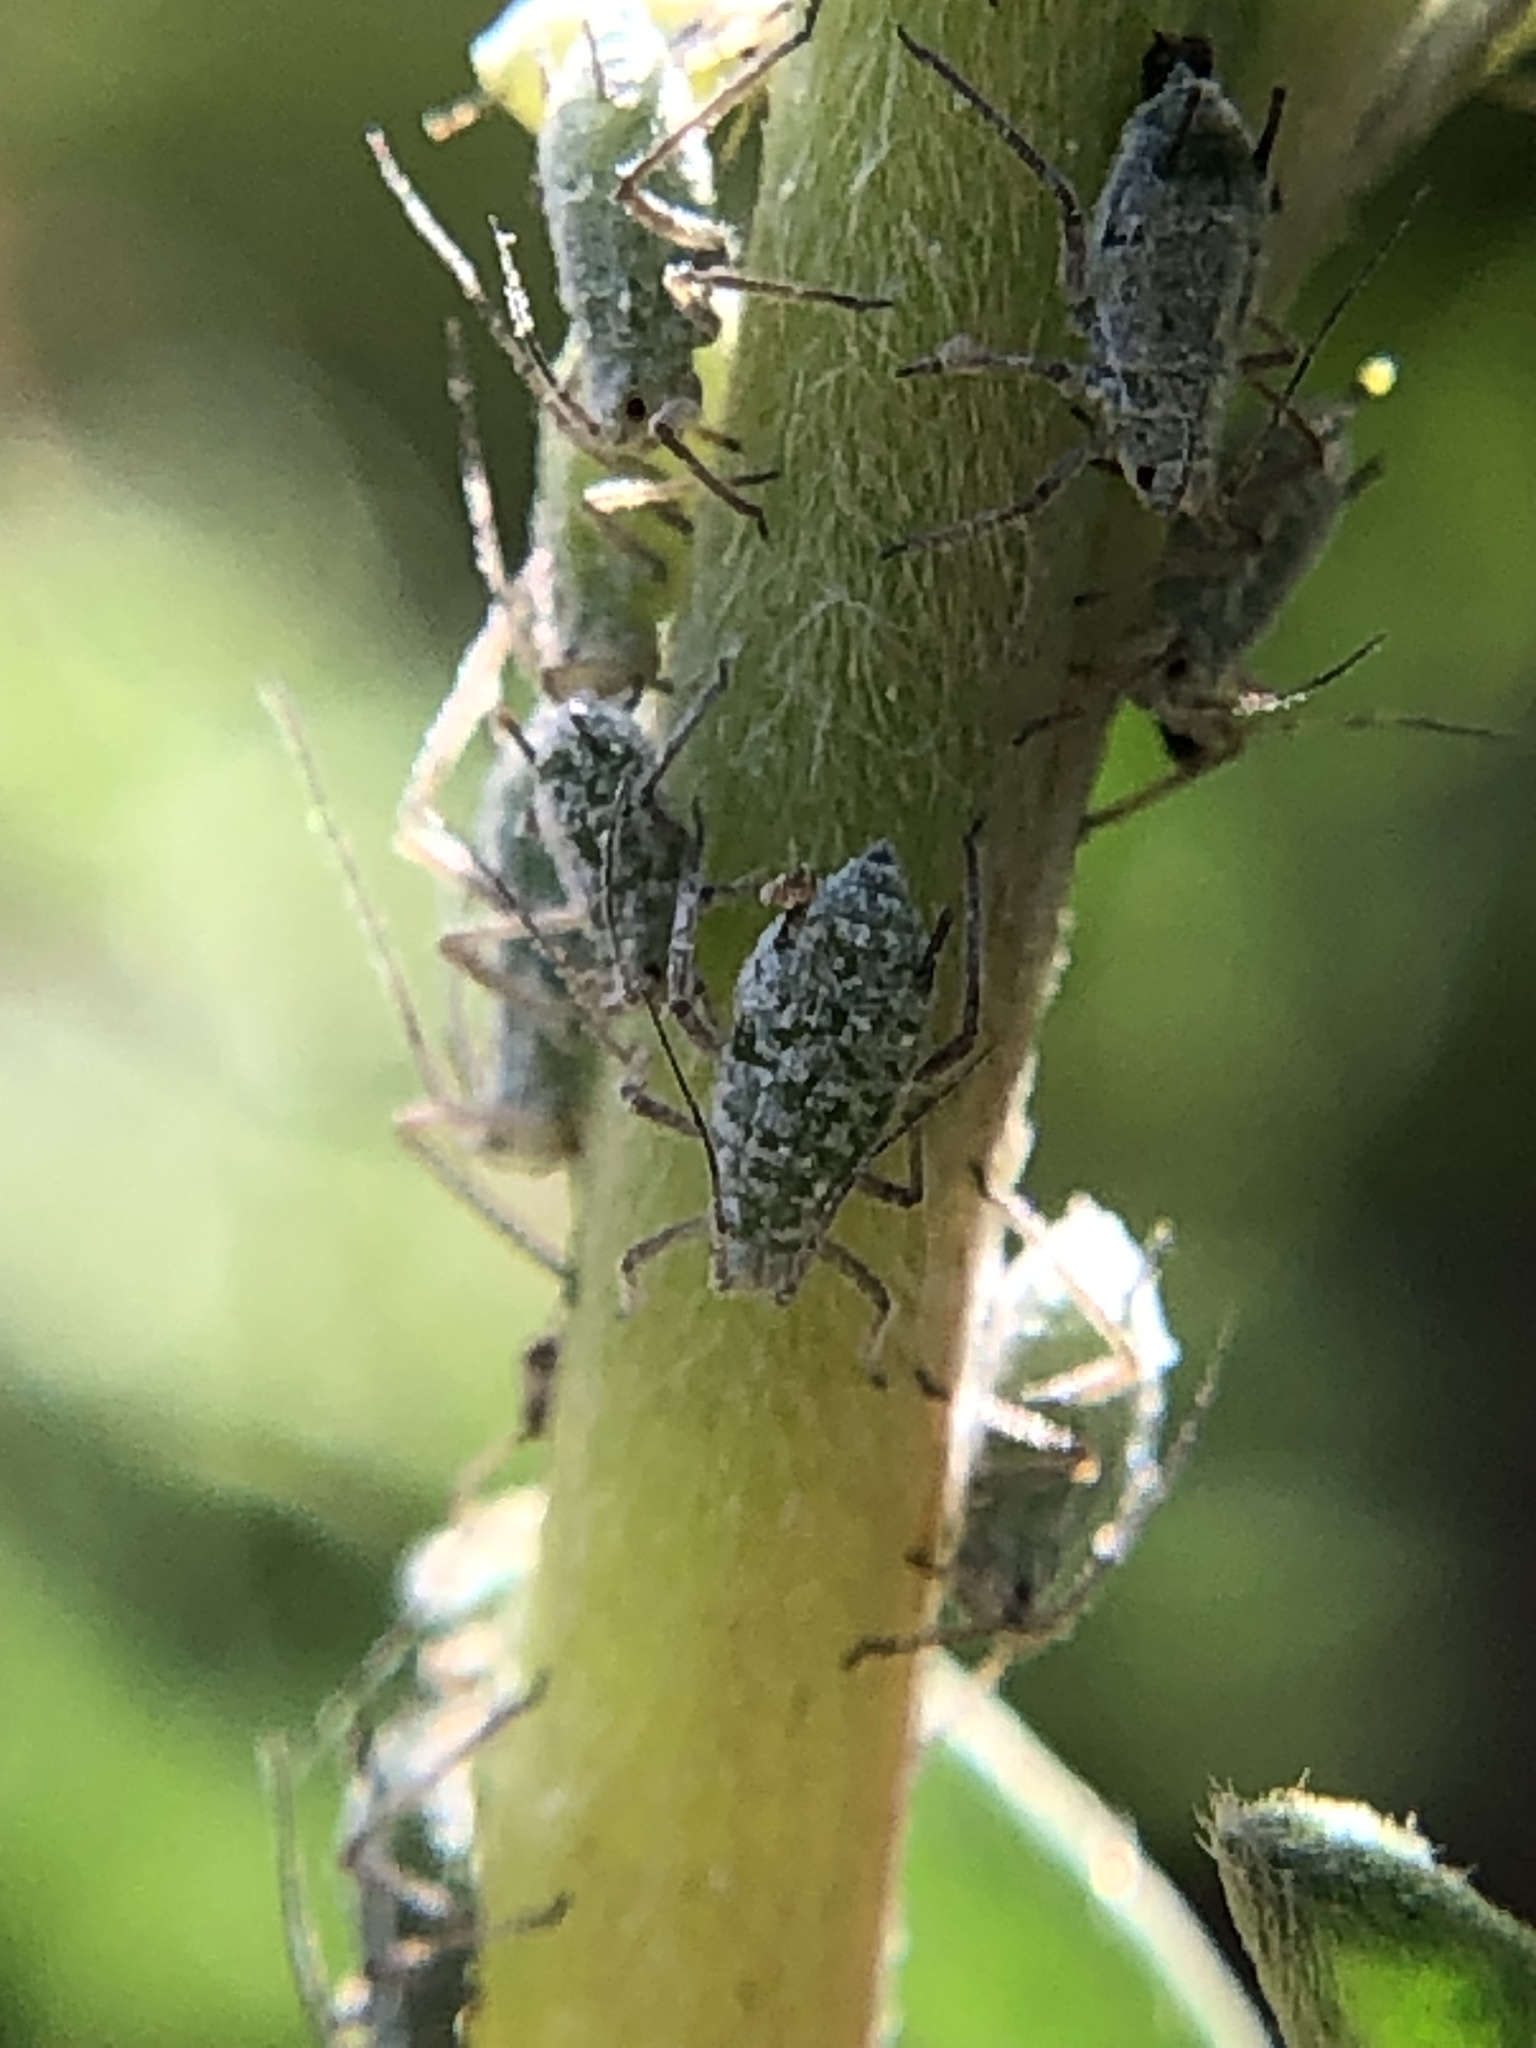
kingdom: Animalia
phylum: Arthropoda
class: Insecta
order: Hemiptera
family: Aphididae
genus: Macrosiphum
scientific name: Macrosiphum albifrons
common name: Lupine aphid
